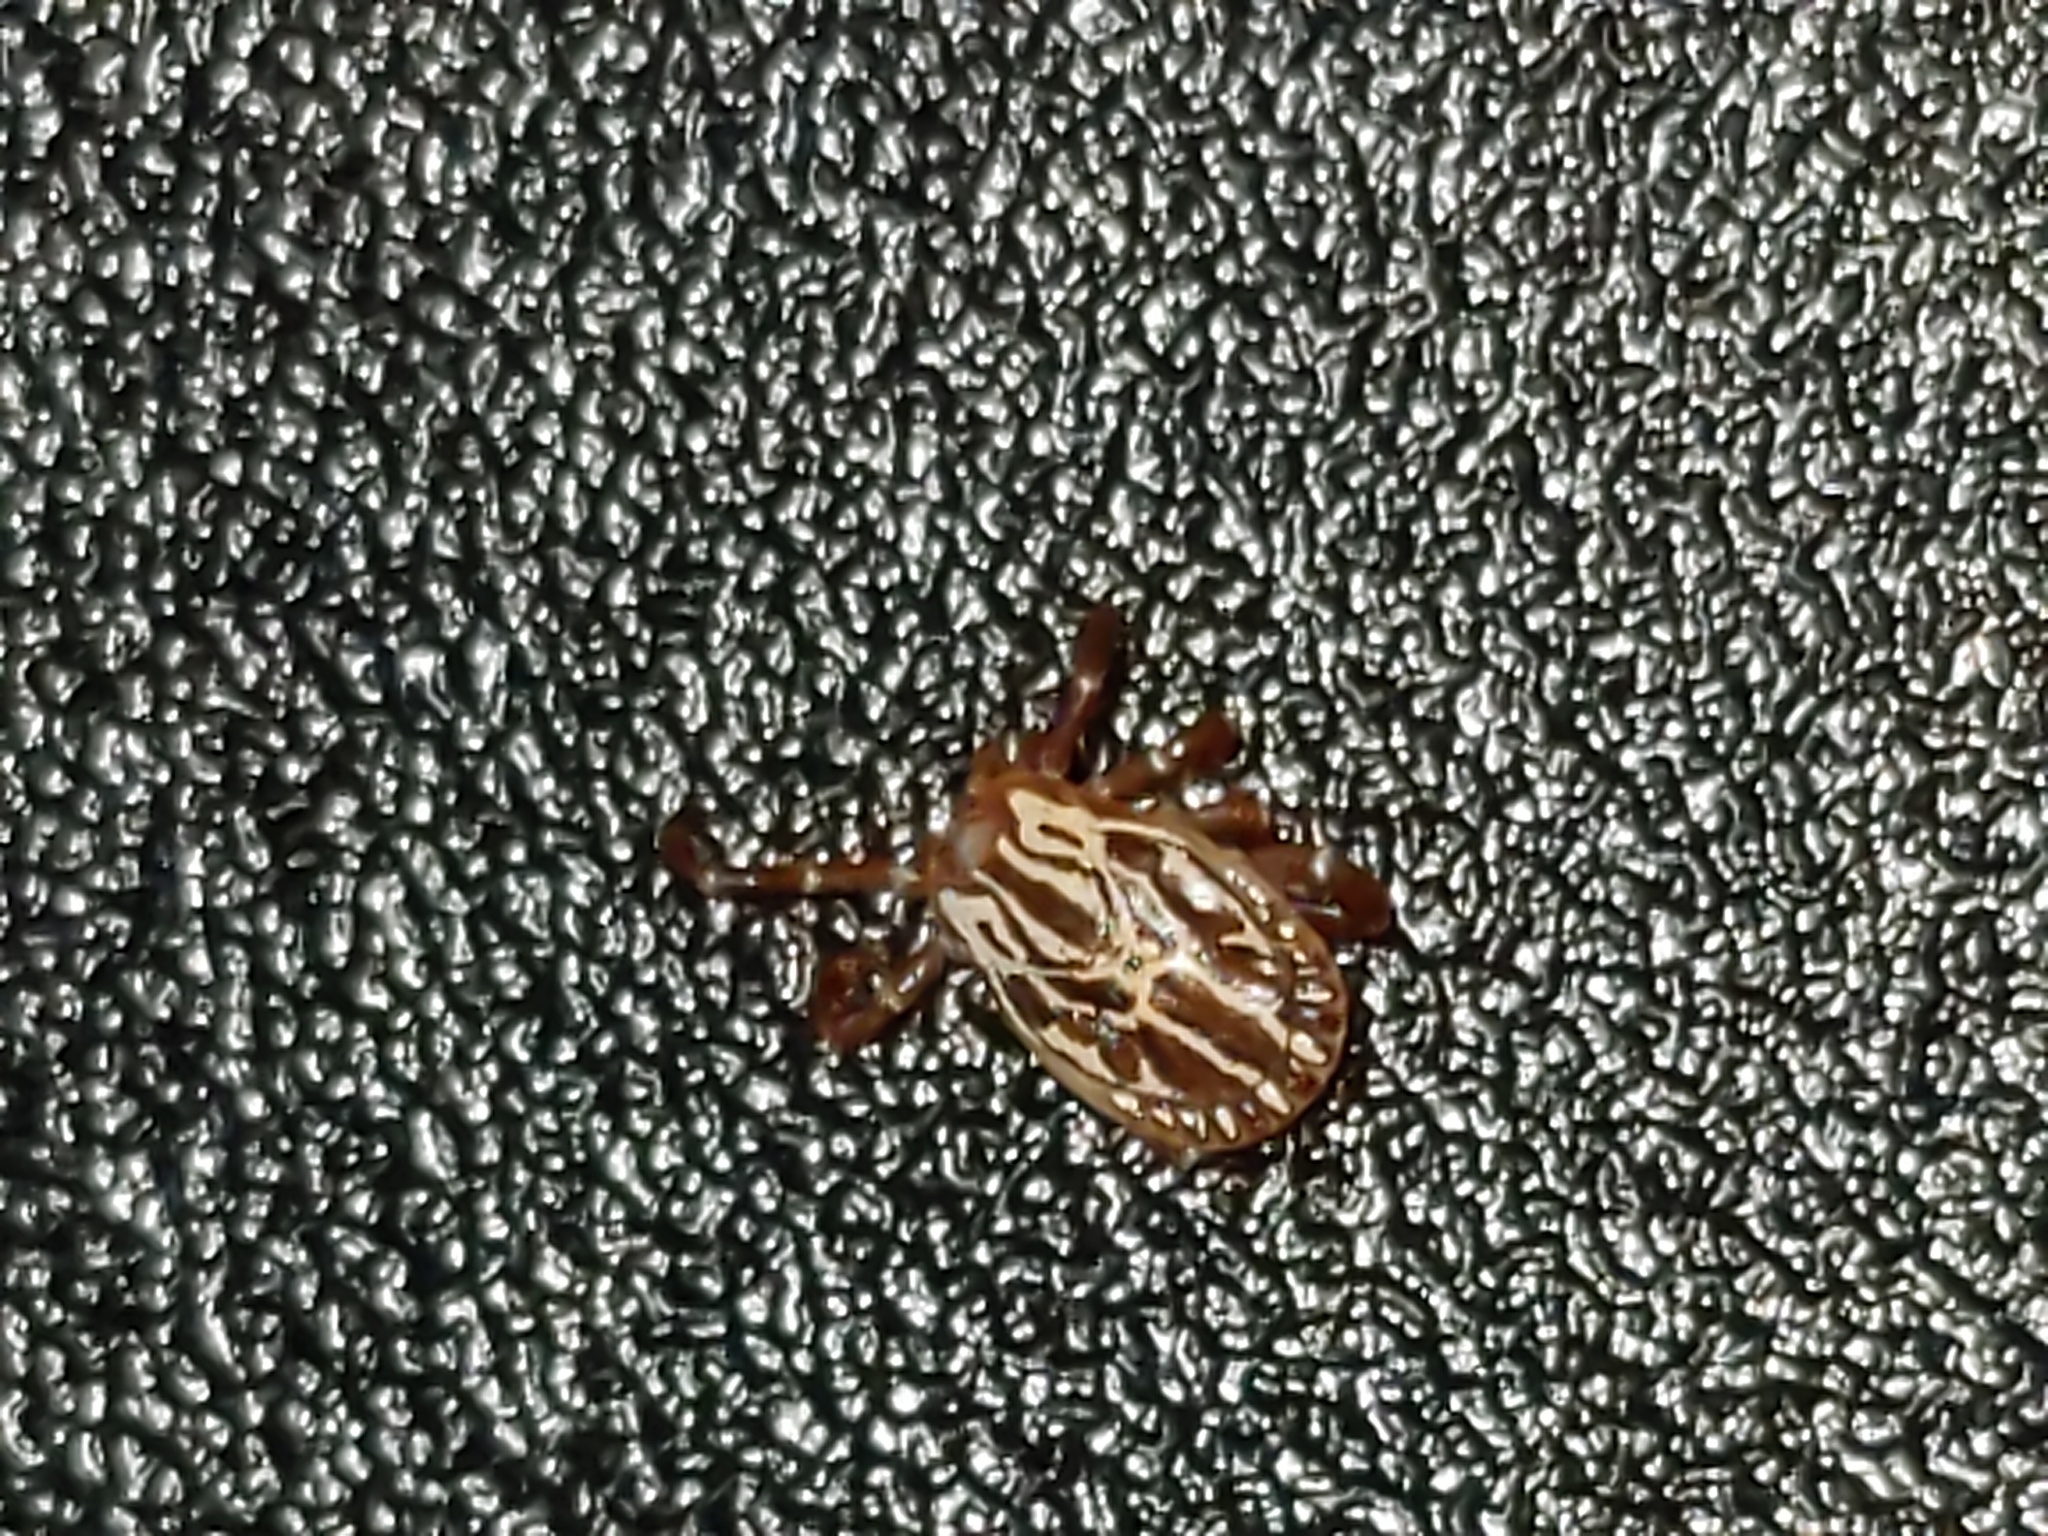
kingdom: Animalia
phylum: Arthropoda
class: Arachnida
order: Ixodida
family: Ixodidae
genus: Amblyomma
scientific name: Amblyomma maculatum
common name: Gulf coast tick
